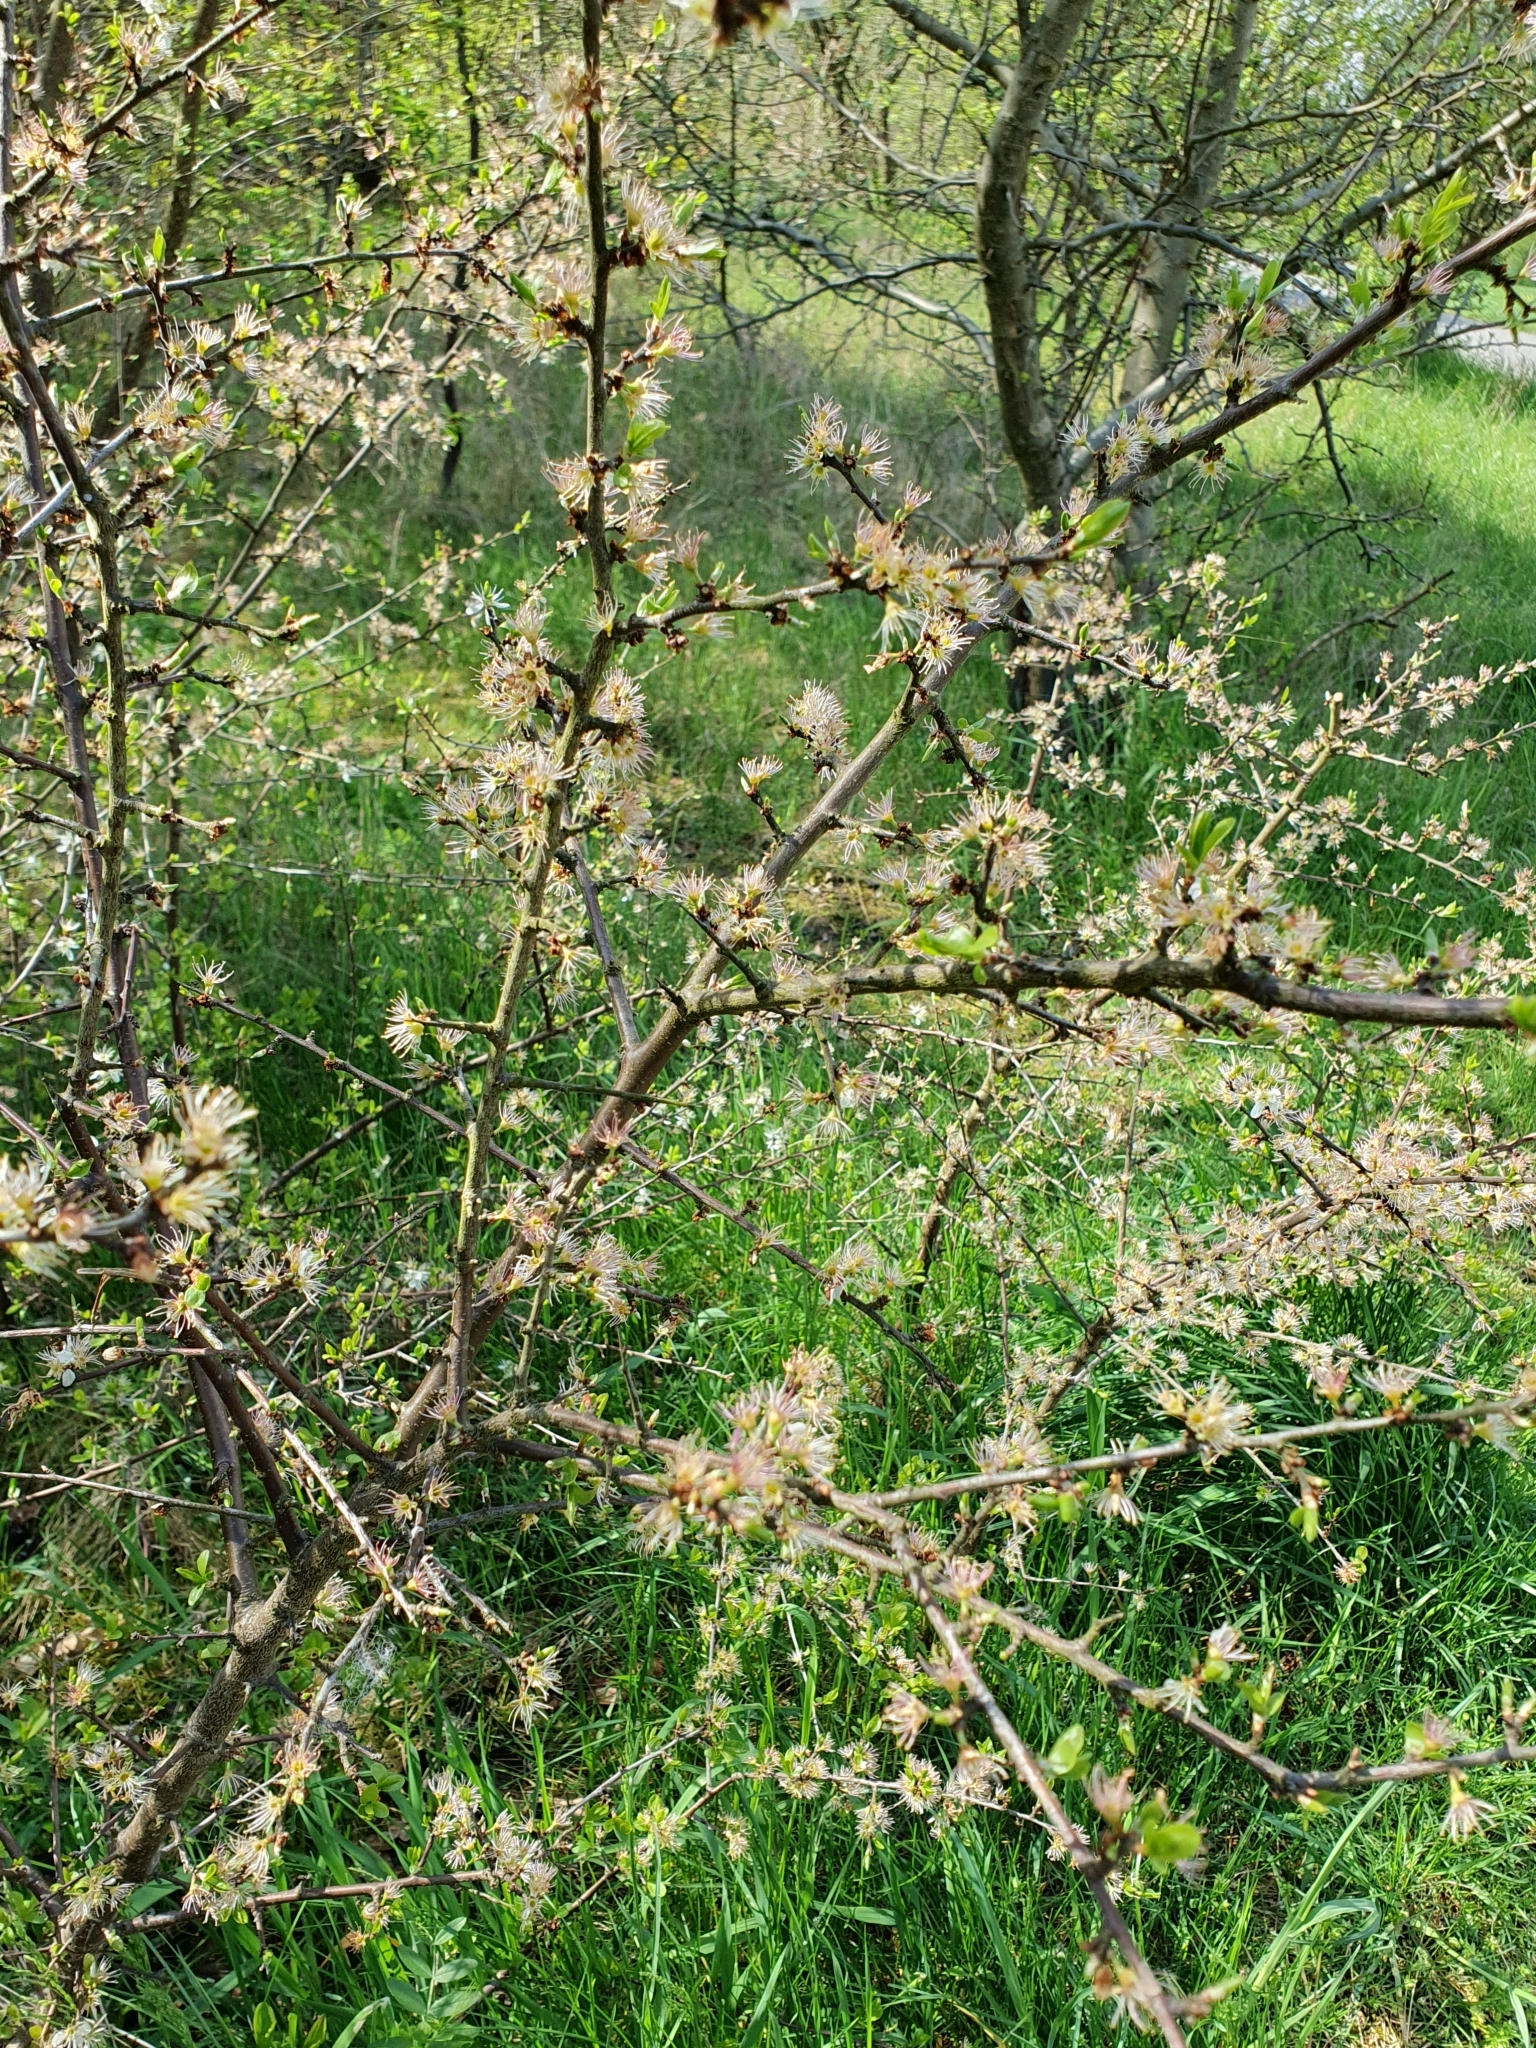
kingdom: Plantae
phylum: Tracheophyta
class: Magnoliopsida
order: Rosales
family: Rosaceae
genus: Prunus
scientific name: Prunus spinosa
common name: Blackthorn
